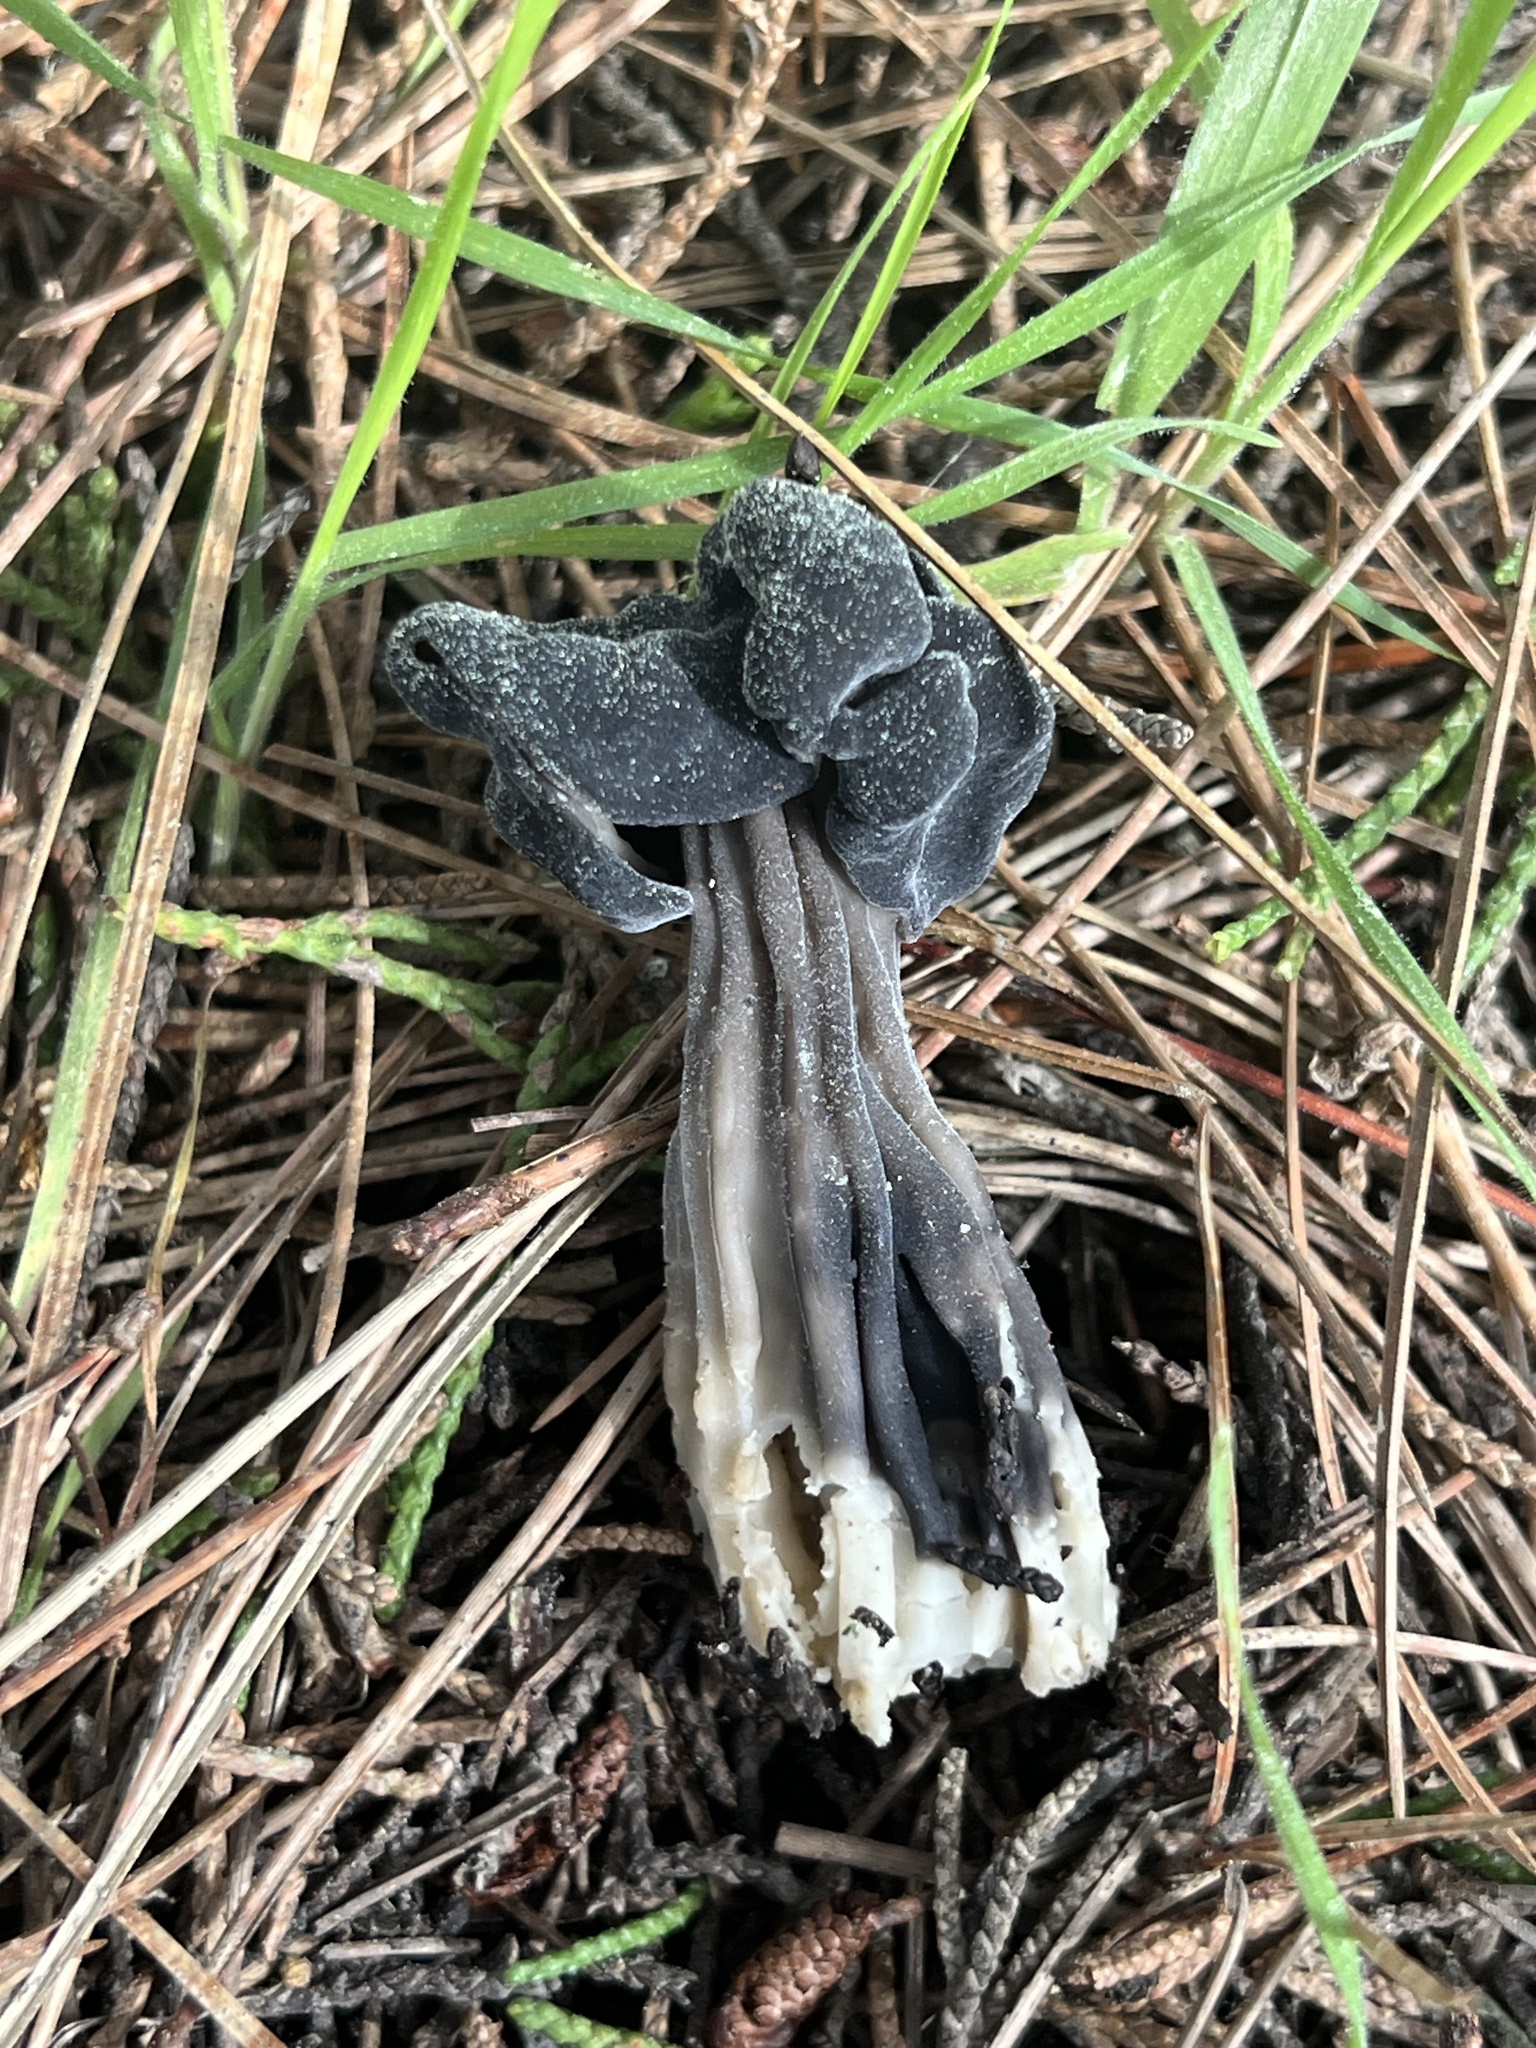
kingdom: Fungi
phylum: Ascomycota
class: Pezizomycetes
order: Pezizales
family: Helvellaceae
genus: Helvella
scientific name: Helvella vespertina
